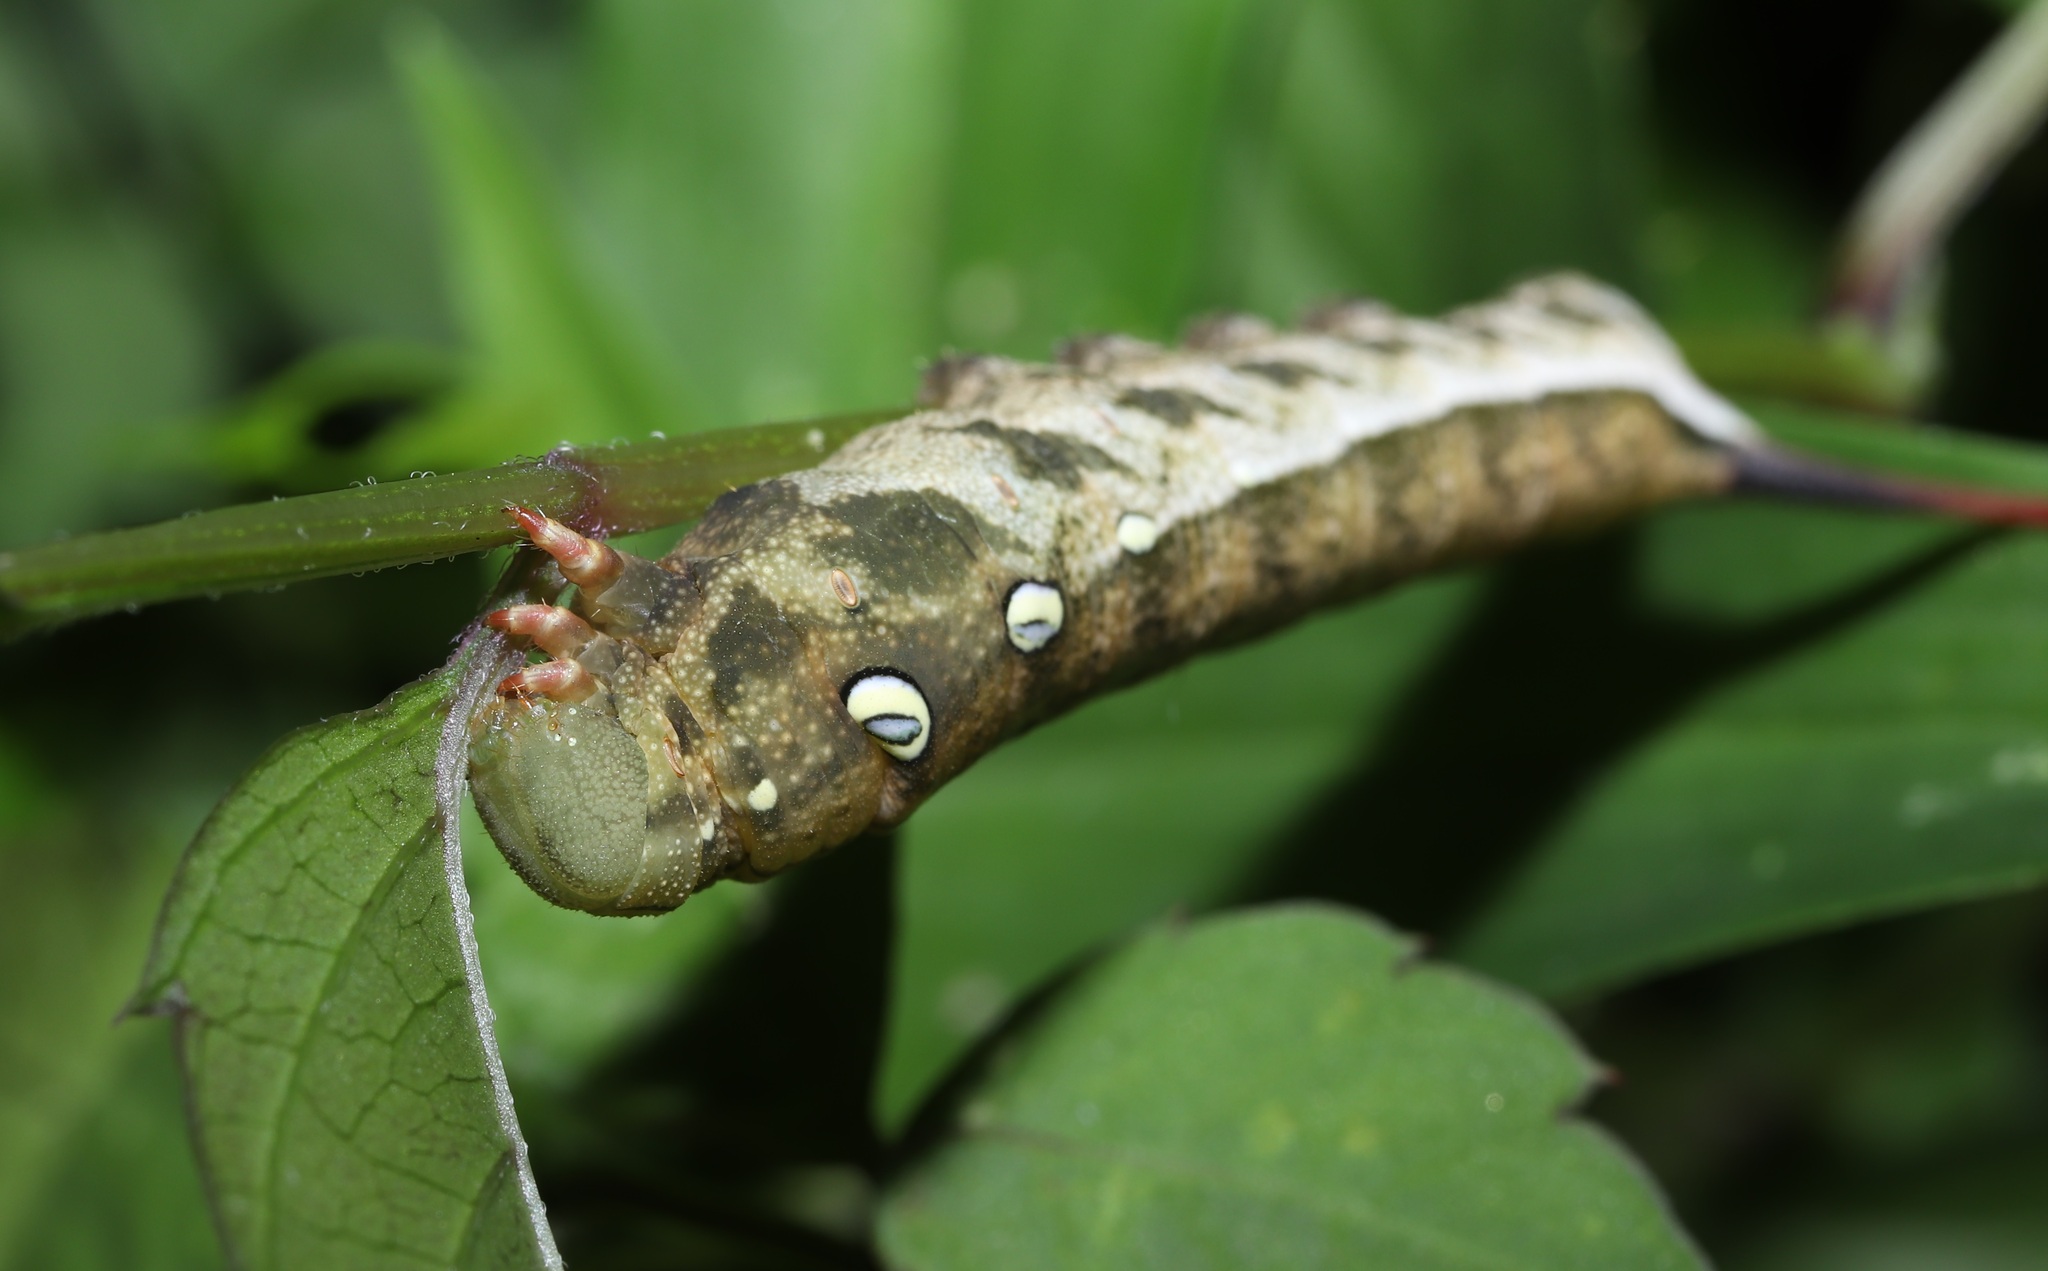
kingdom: Animalia
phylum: Arthropoda
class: Insecta
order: Lepidoptera
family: Sphingidae
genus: Theretra
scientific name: Theretra japonica
